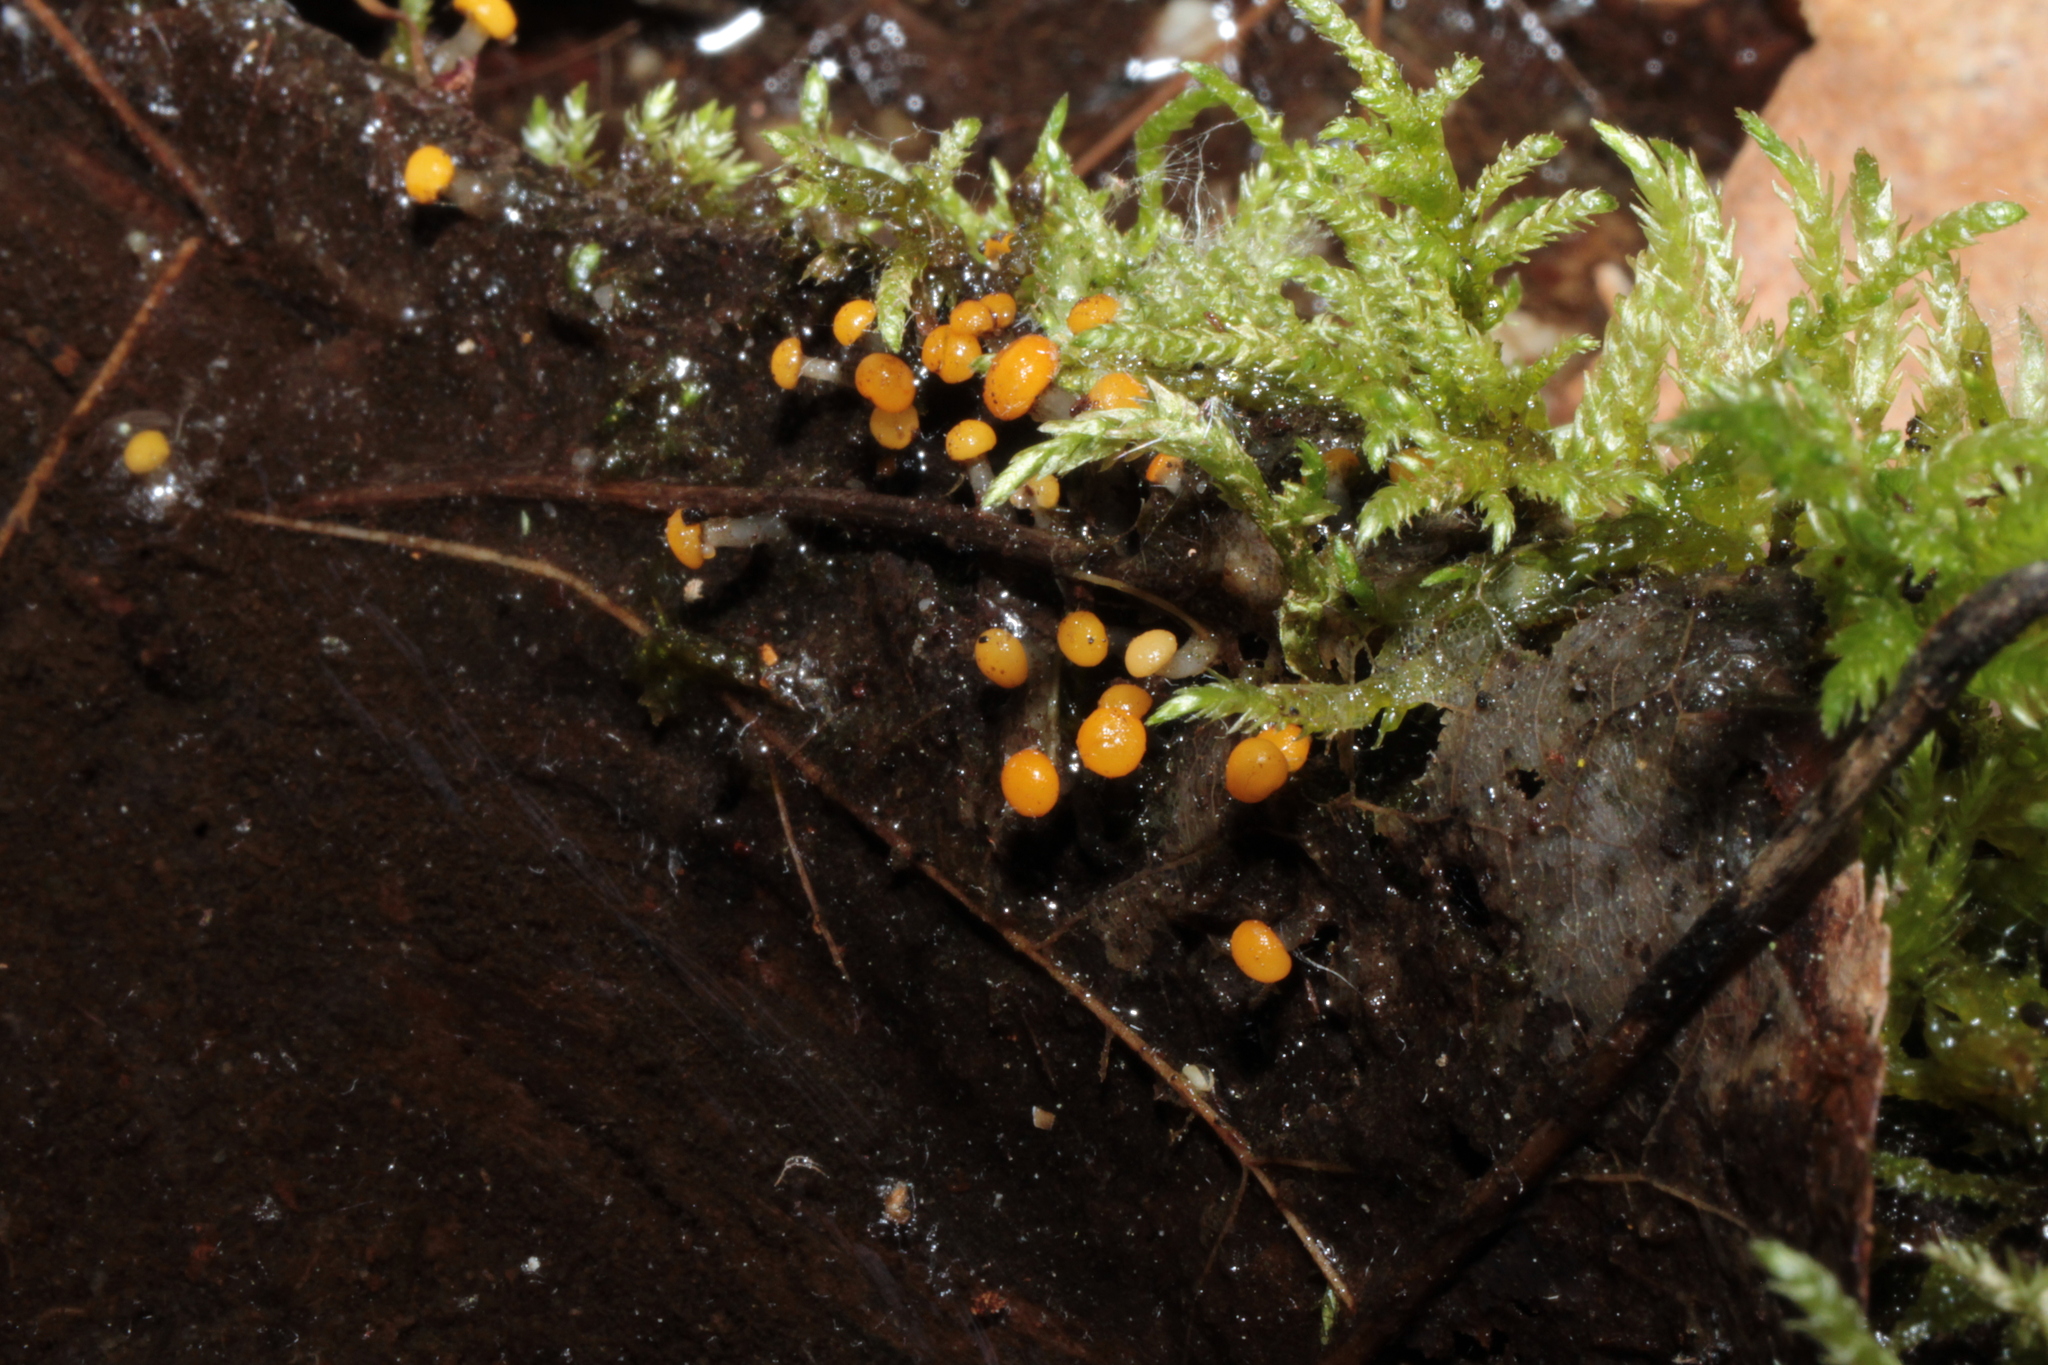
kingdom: Fungi
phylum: Ascomycota
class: Leotiomycetes
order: Helotiales
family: Vibrisseaceae
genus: Vibrissea
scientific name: Vibrissea truncorum
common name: Stream beacon
